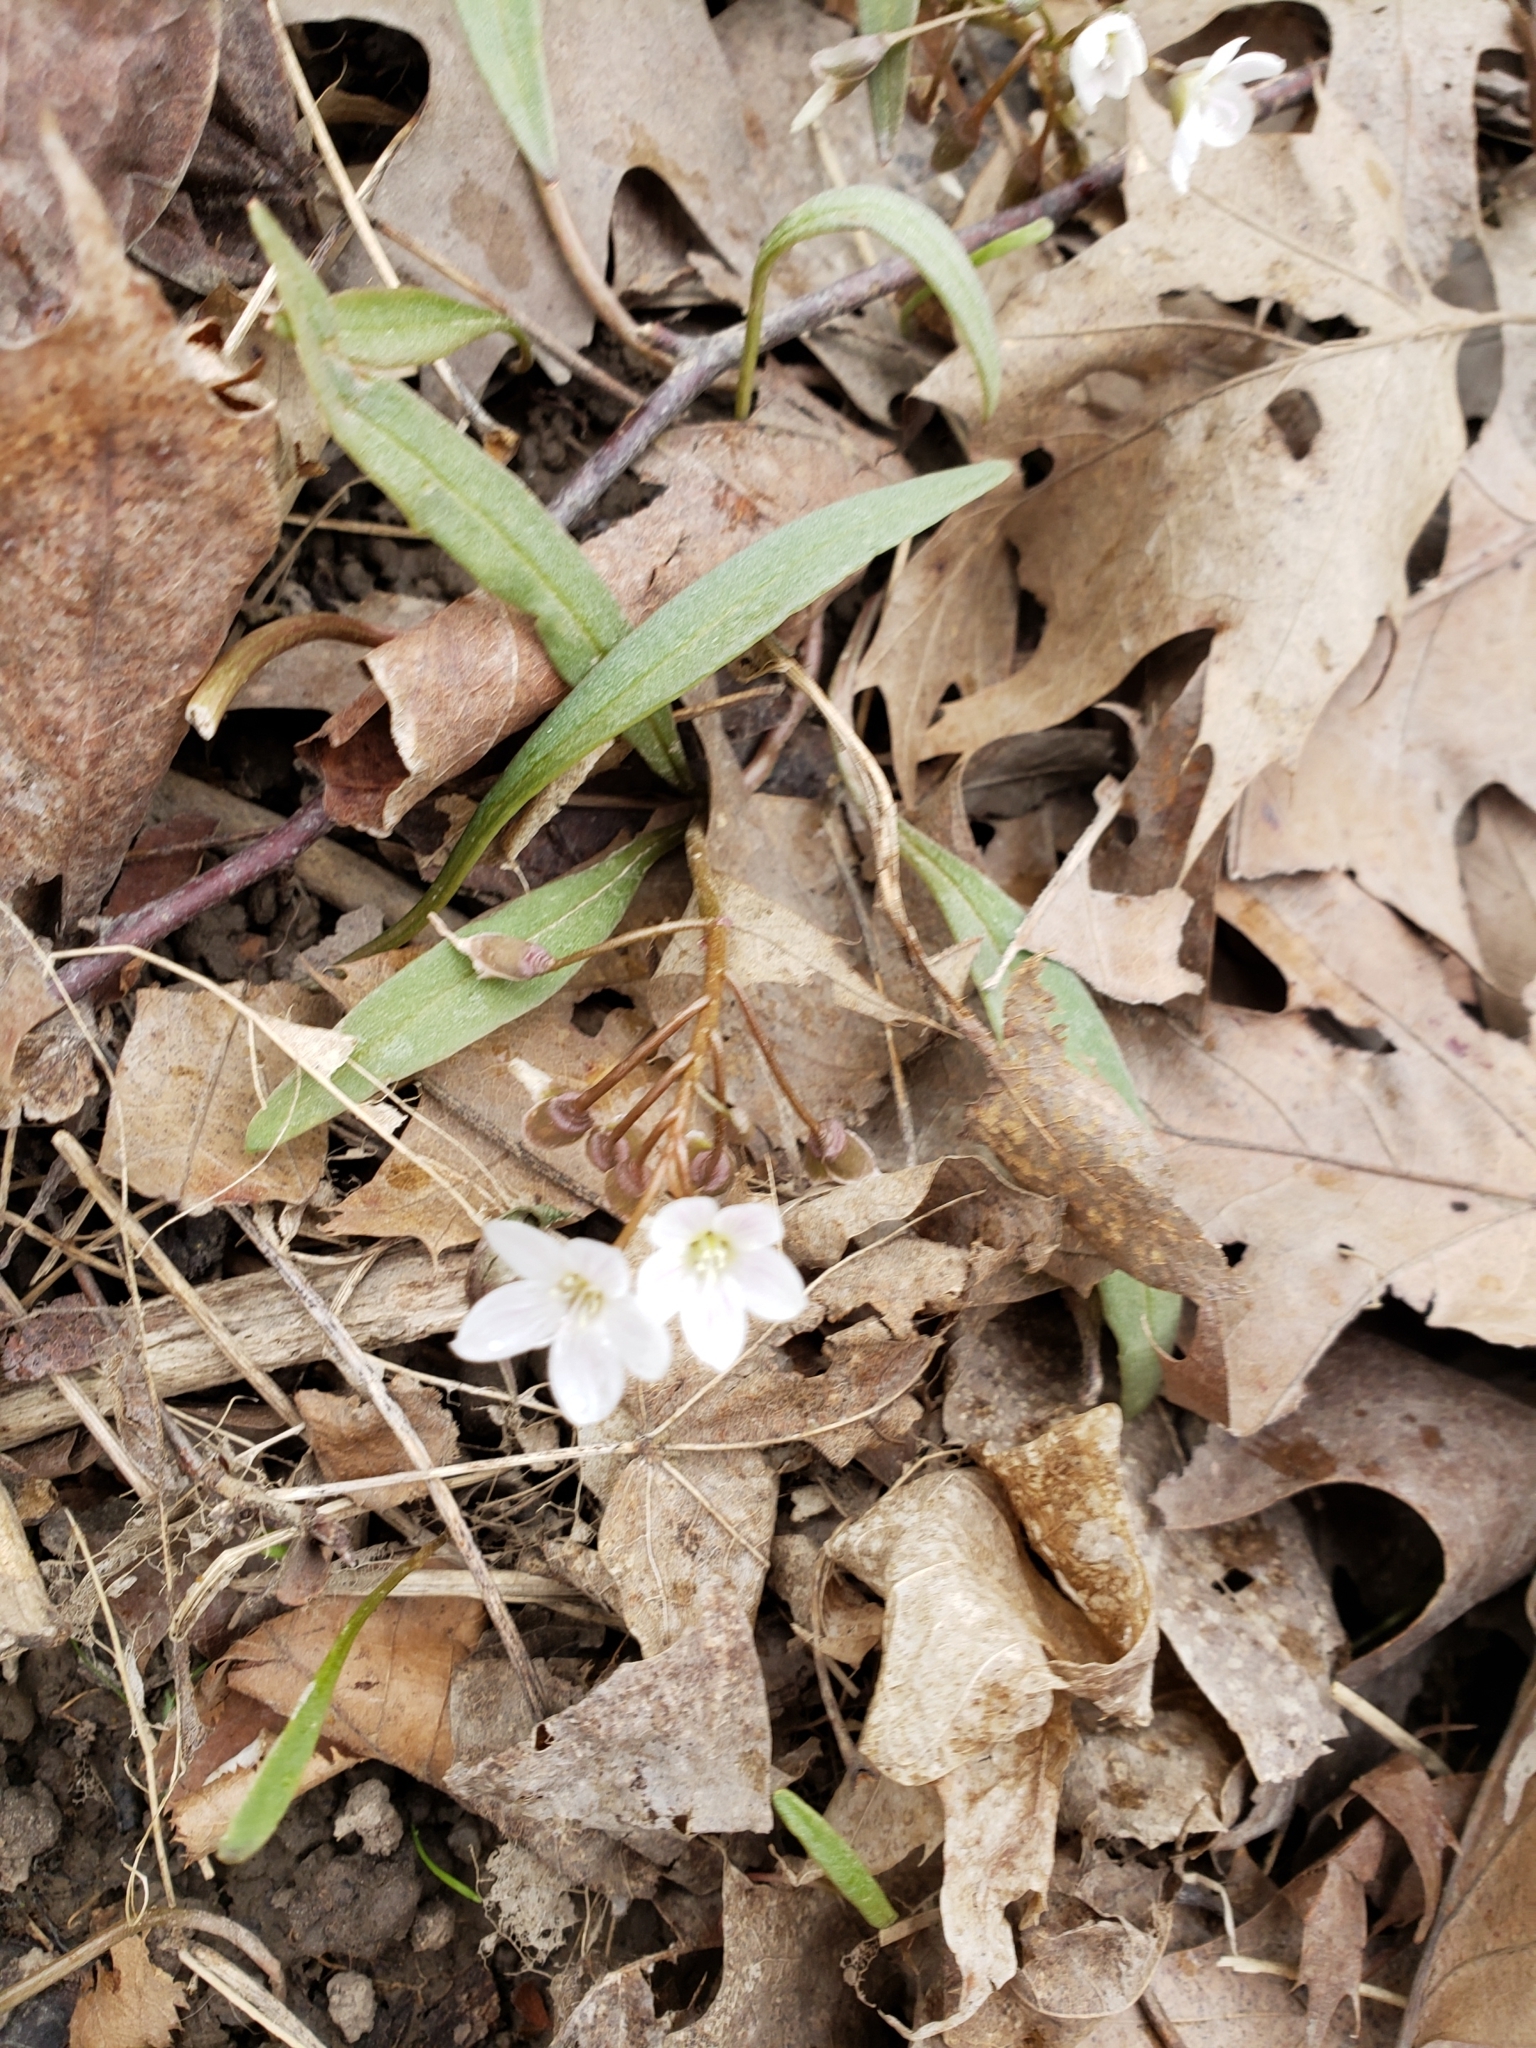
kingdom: Plantae
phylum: Tracheophyta
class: Magnoliopsida
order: Caryophyllales
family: Montiaceae
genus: Claytonia
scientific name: Claytonia virginica
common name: Virginia springbeauty
